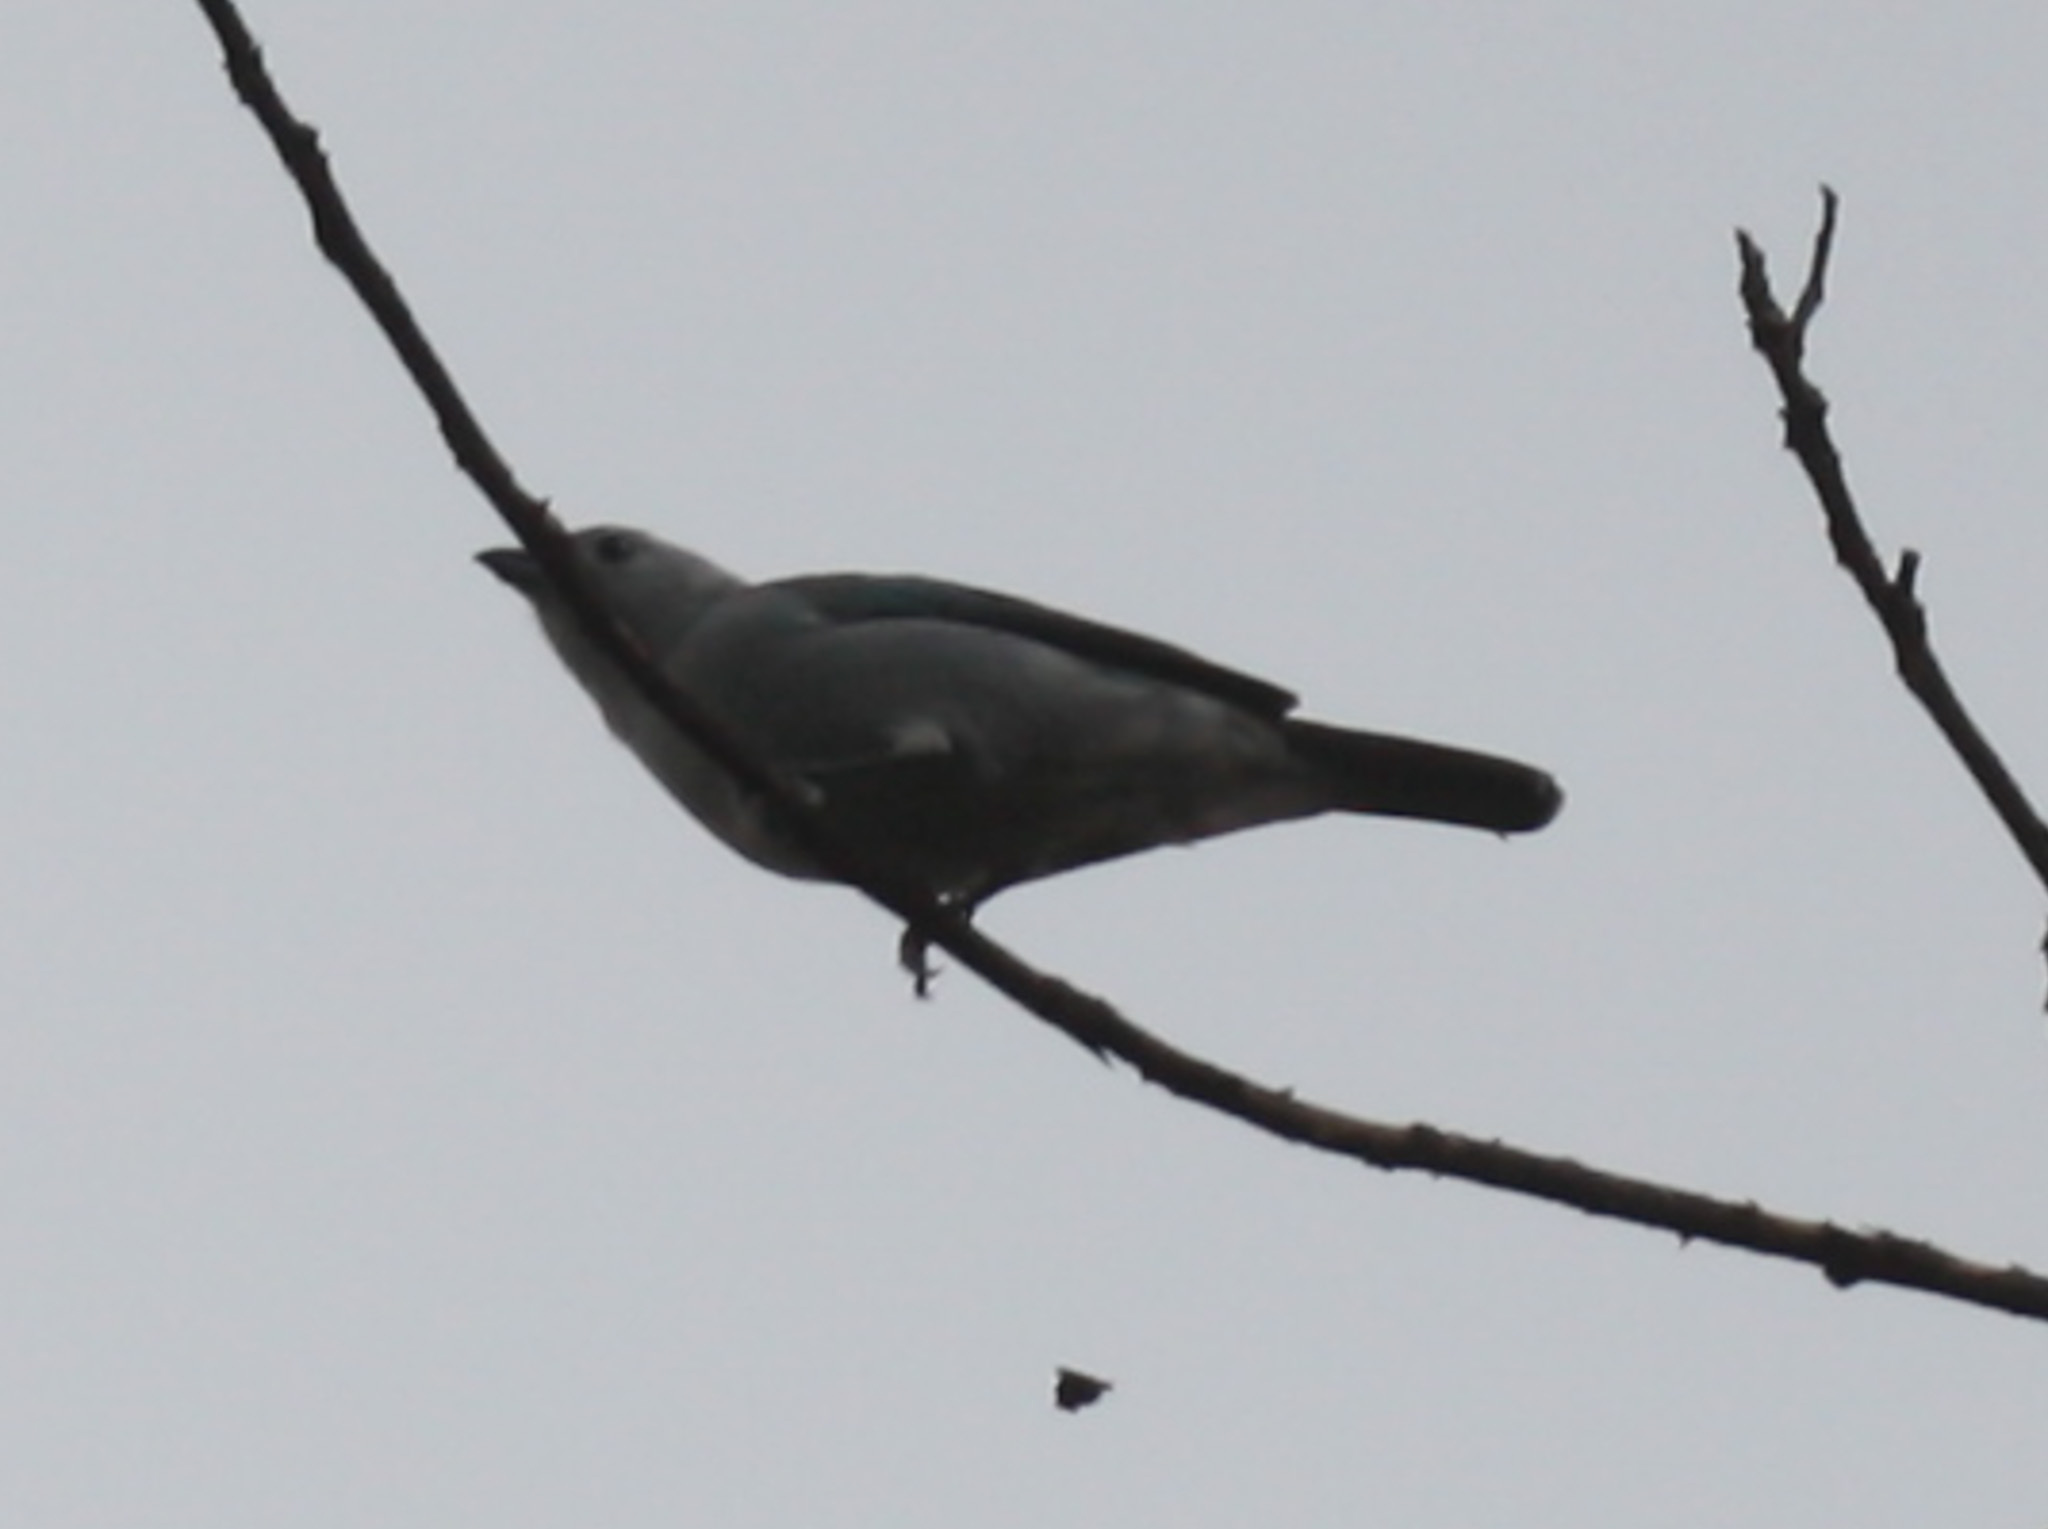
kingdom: Animalia
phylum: Chordata
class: Aves
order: Passeriformes
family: Thraupidae
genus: Thraupis
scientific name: Thraupis episcopus
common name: Blue-grey tanager
